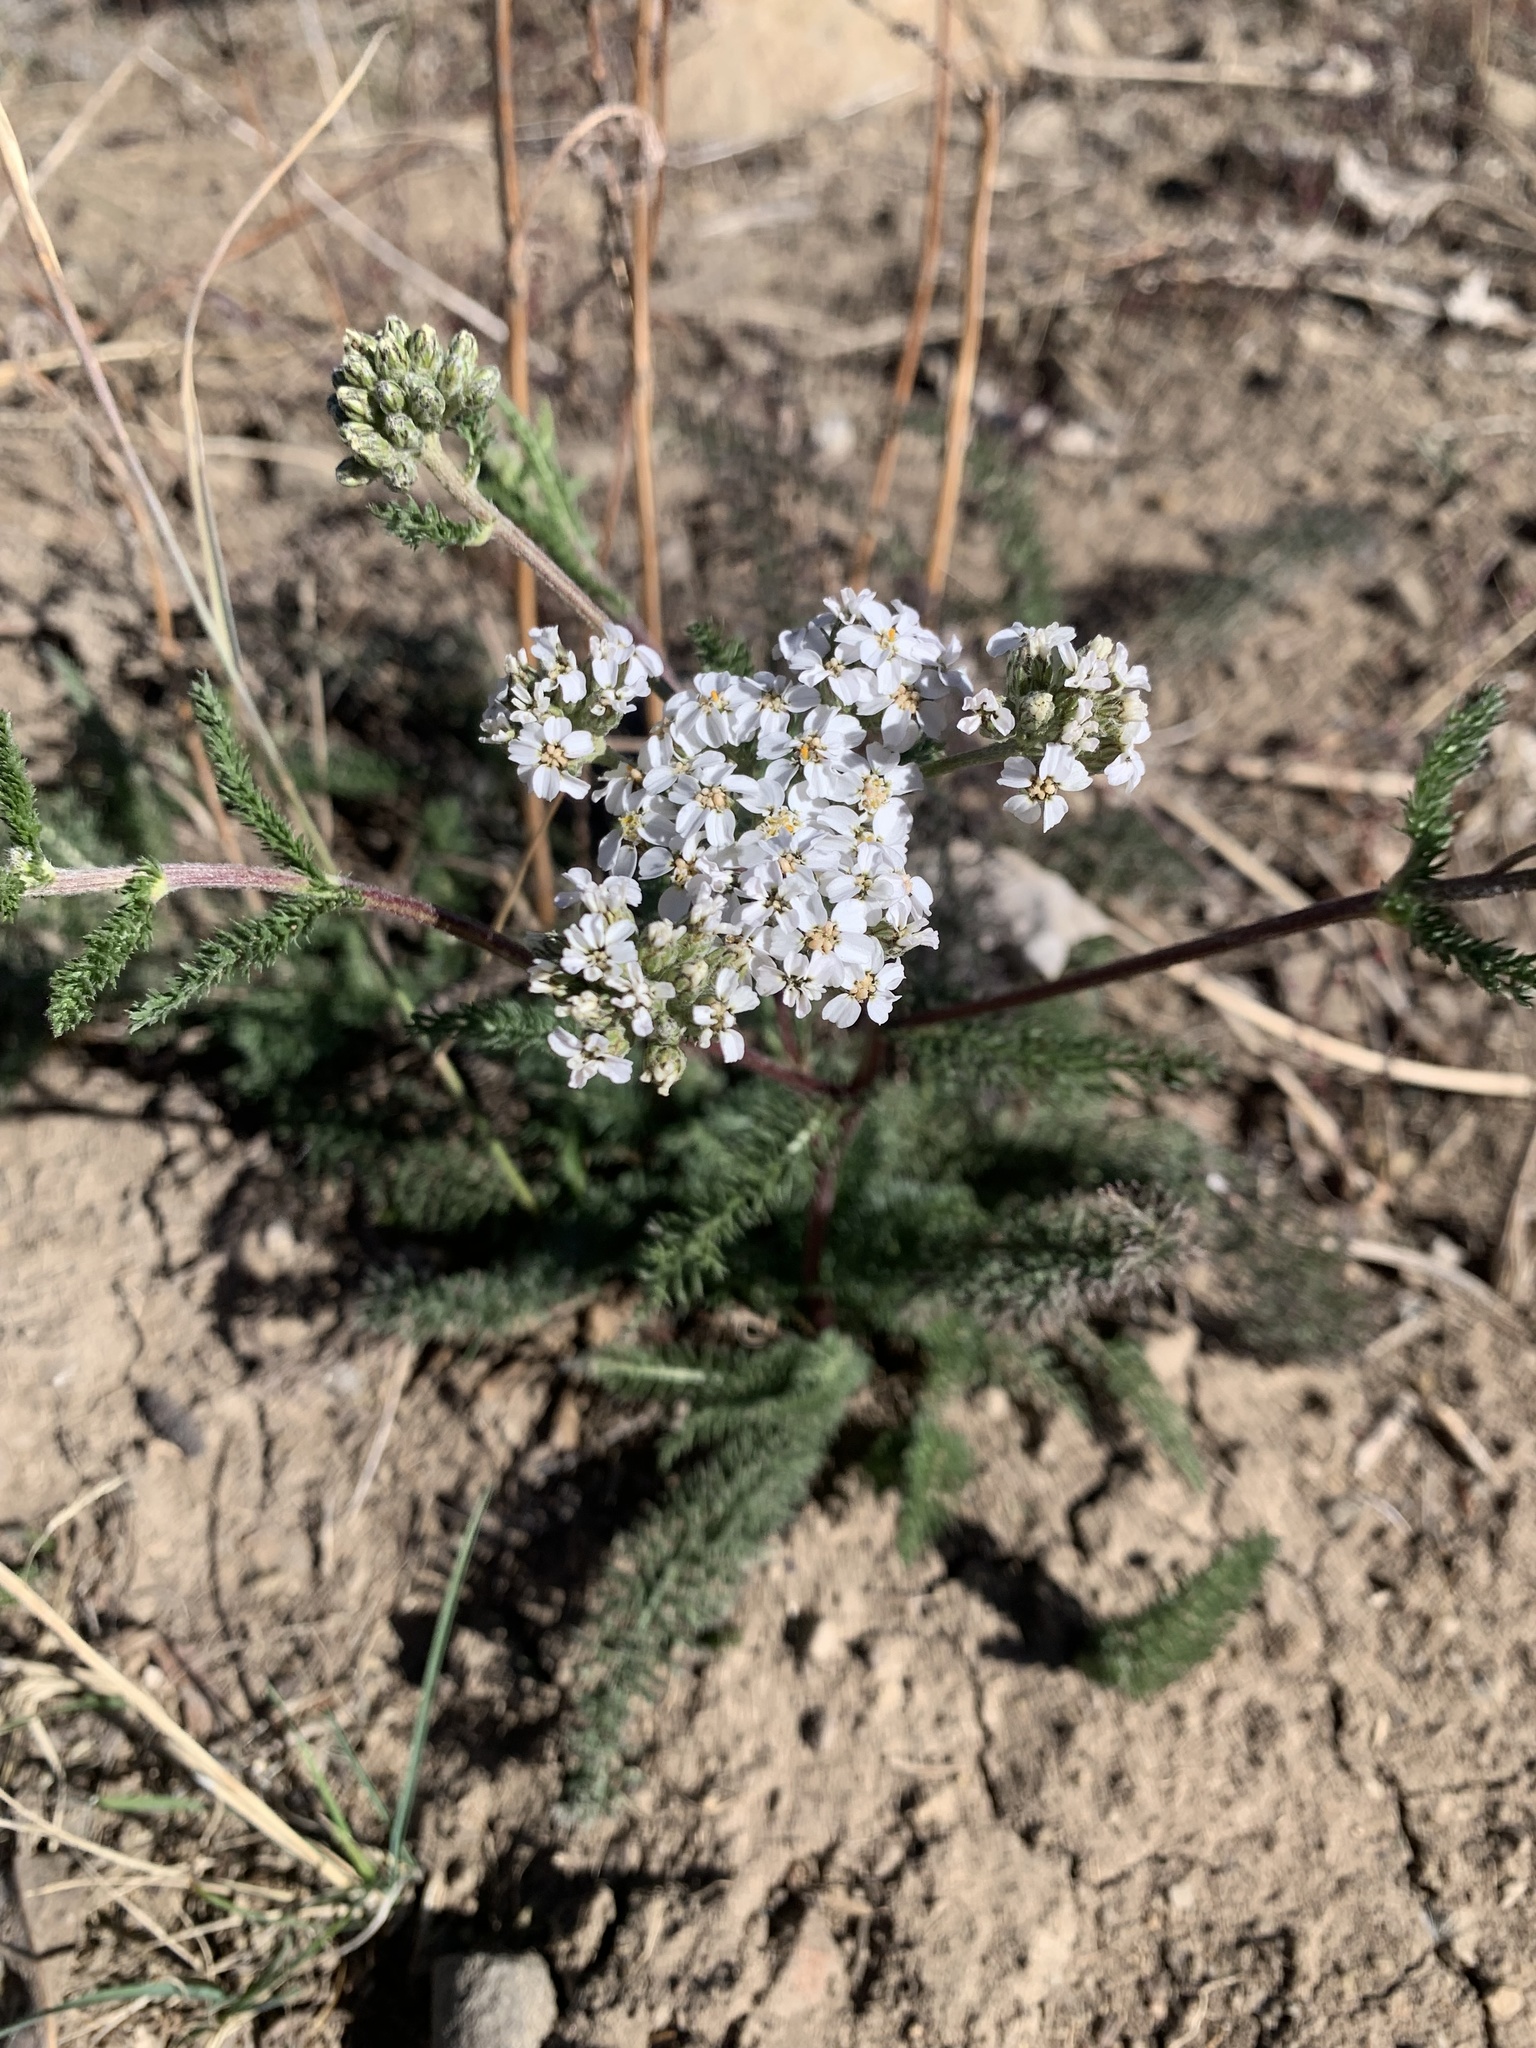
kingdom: Plantae
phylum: Tracheophyta
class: Magnoliopsida
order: Asterales
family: Asteraceae
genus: Achillea
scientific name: Achillea millefolium
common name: Yarrow
